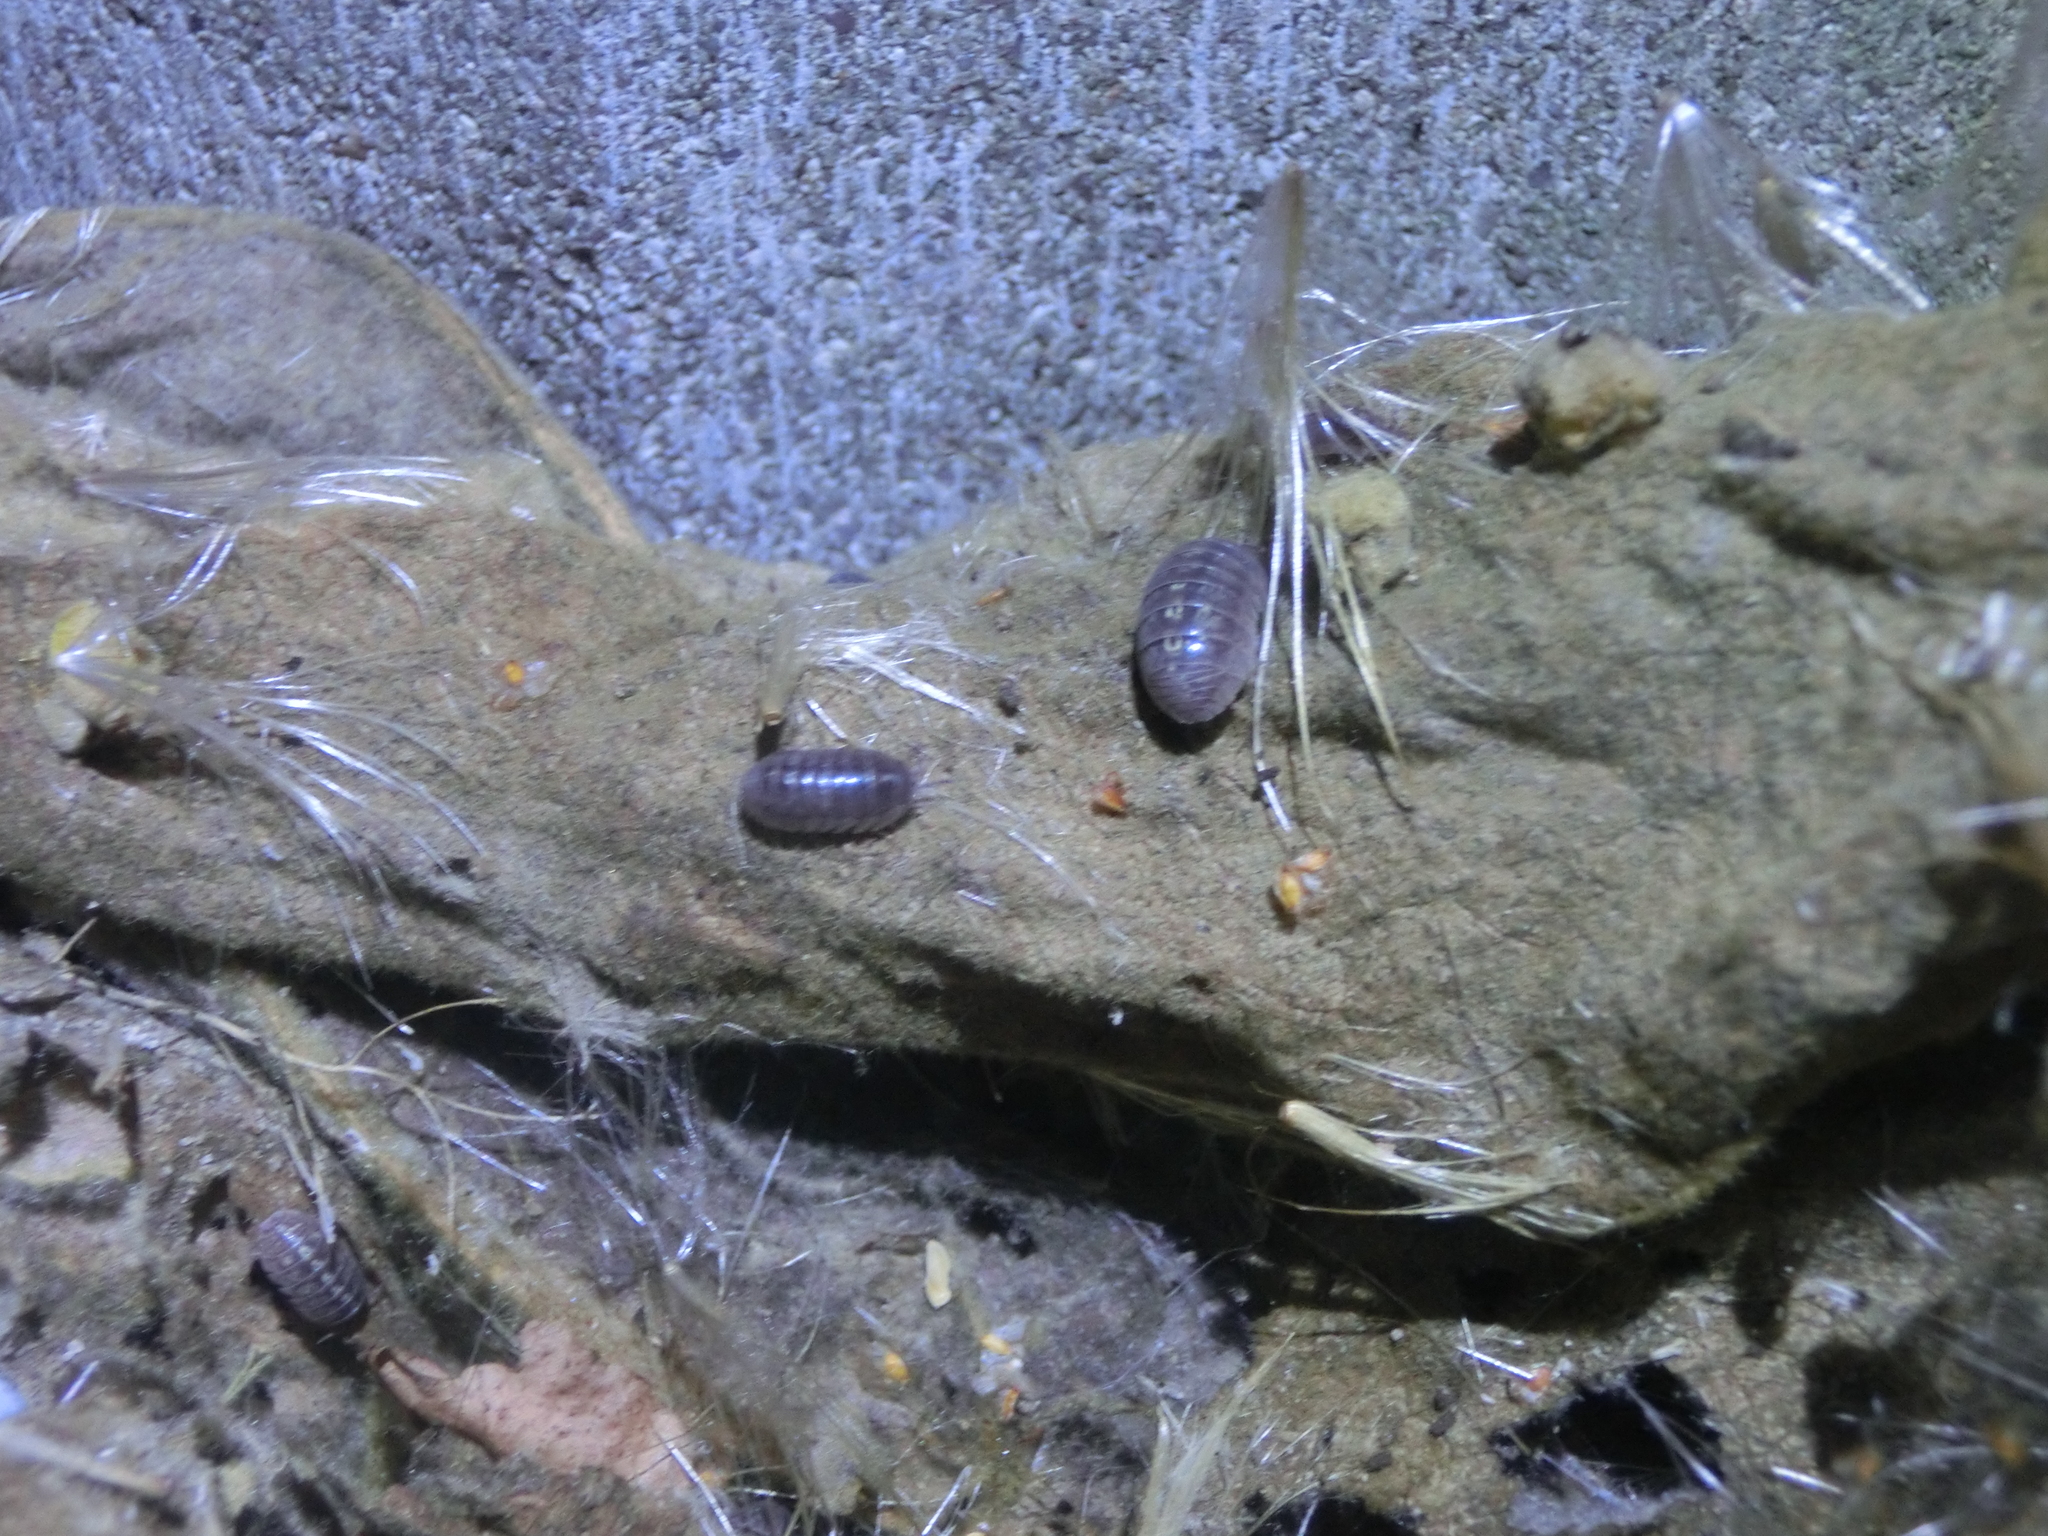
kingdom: Animalia
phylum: Arthropoda
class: Malacostraca
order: Isopoda
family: Armadillidiidae
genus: Armadillidium
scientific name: Armadillidium vulgare
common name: Common pill woodlouse
